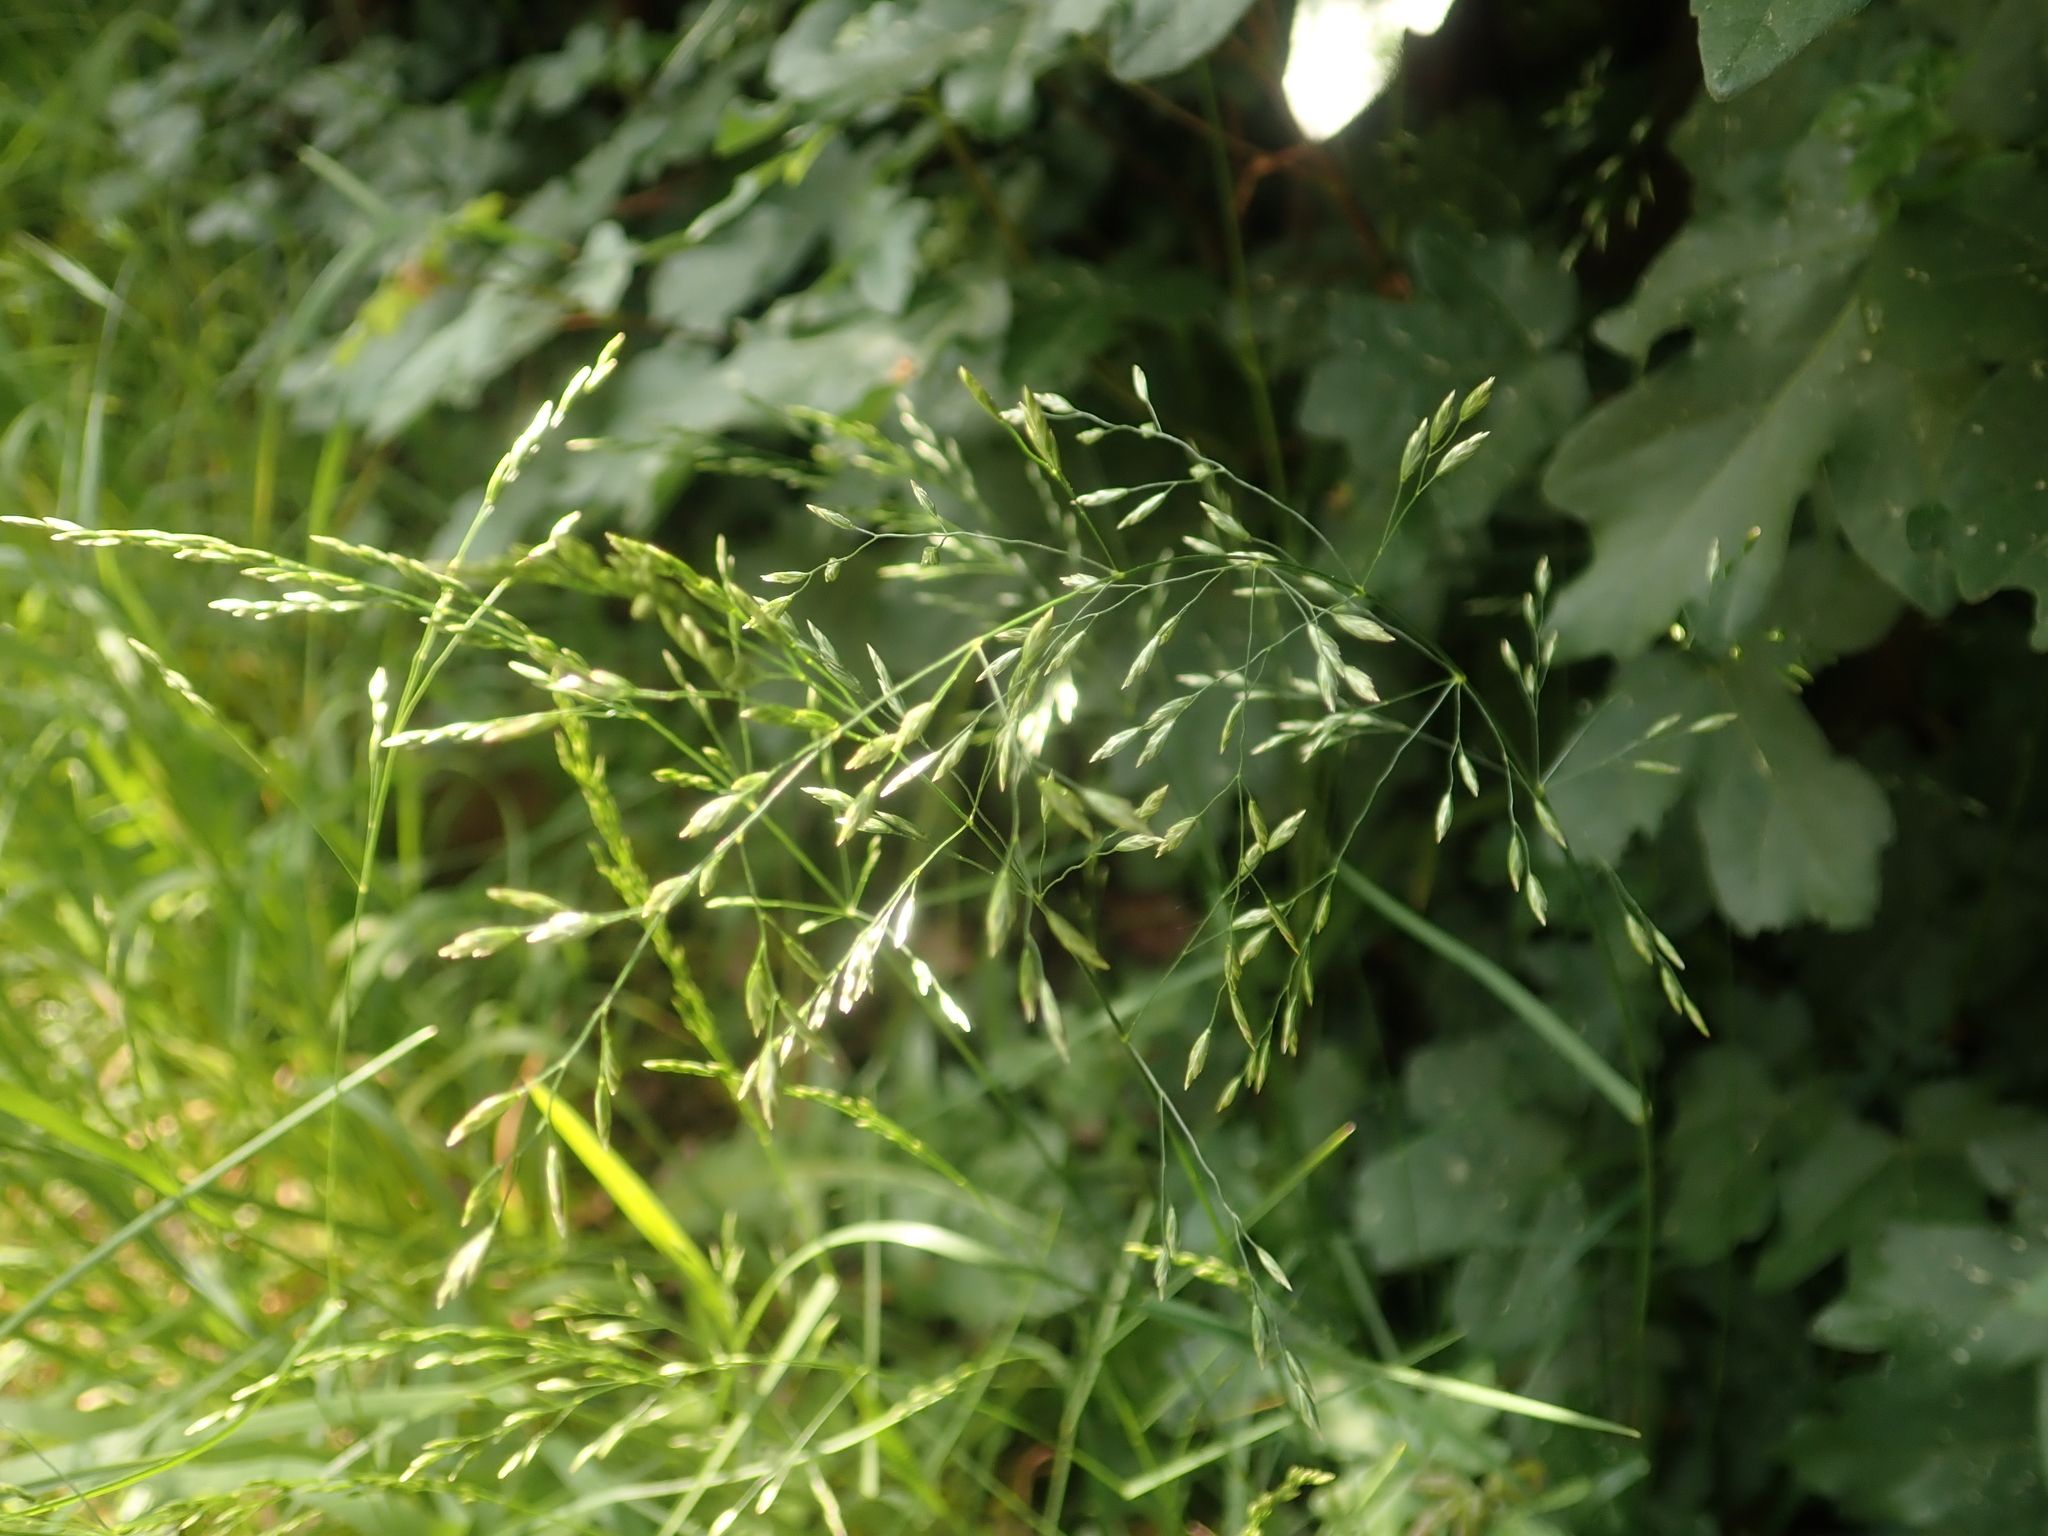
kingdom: Plantae
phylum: Tracheophyta
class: Liliopsida
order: Poales
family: Poaceae
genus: Poa
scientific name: Poa nemoralis
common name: Wood bluegrass
